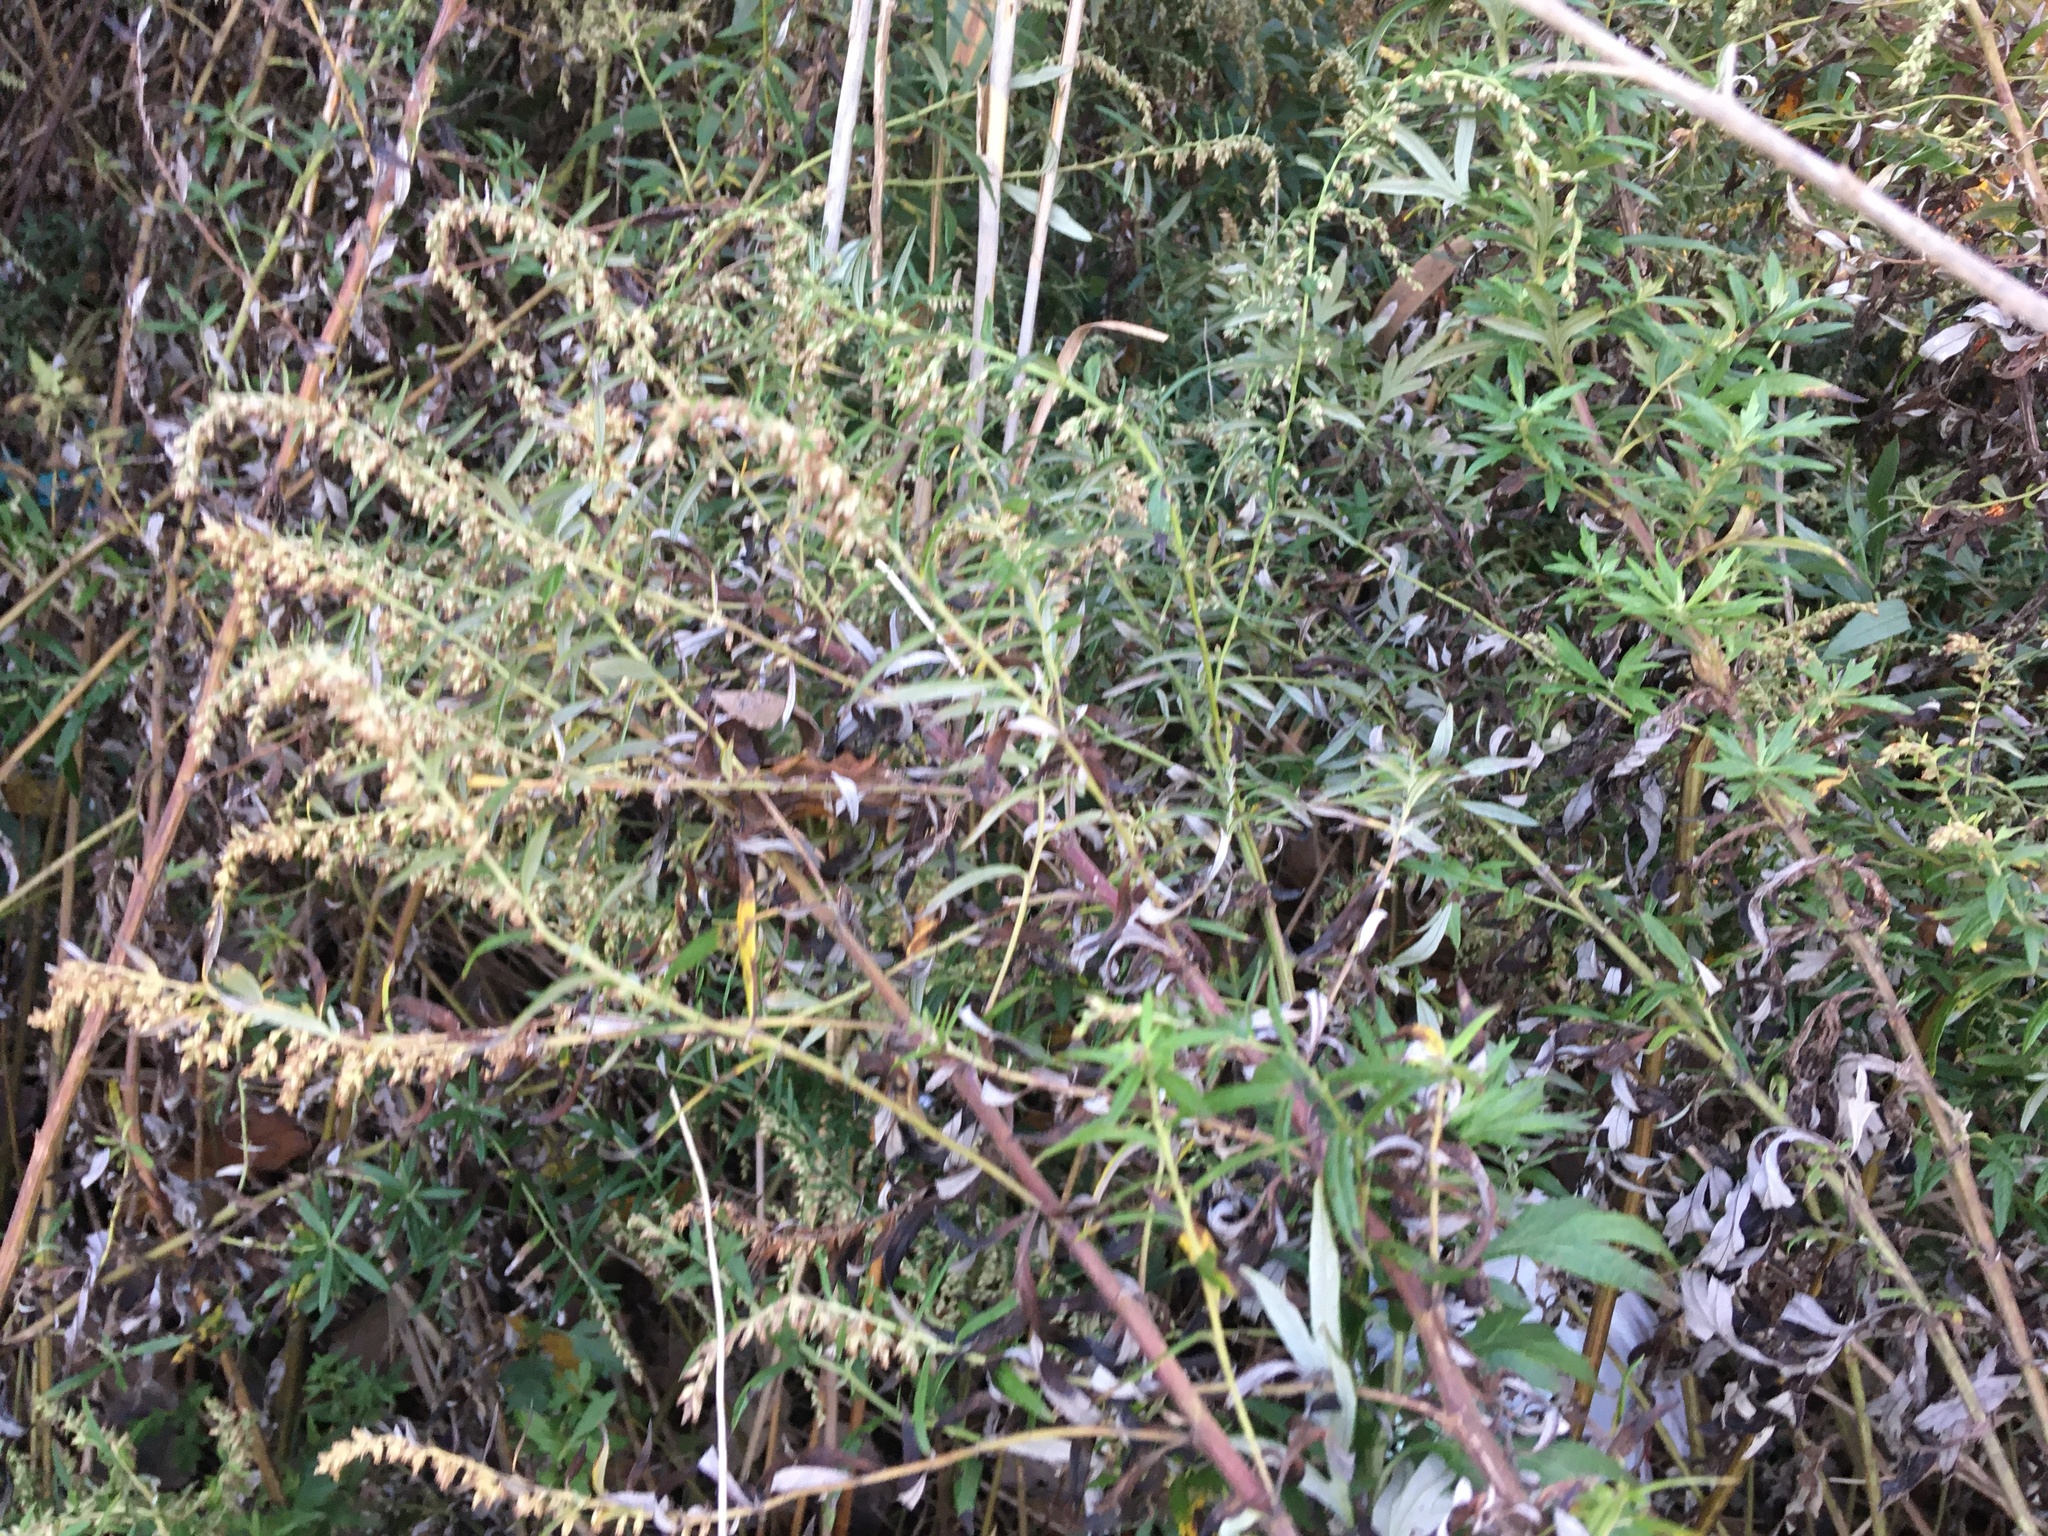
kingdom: Plantae
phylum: Tracheophyta
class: Magnoliopsida
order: Asterales
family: Asteraceae
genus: Artemisia
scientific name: Artemisia vulgaris
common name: Mugwort
